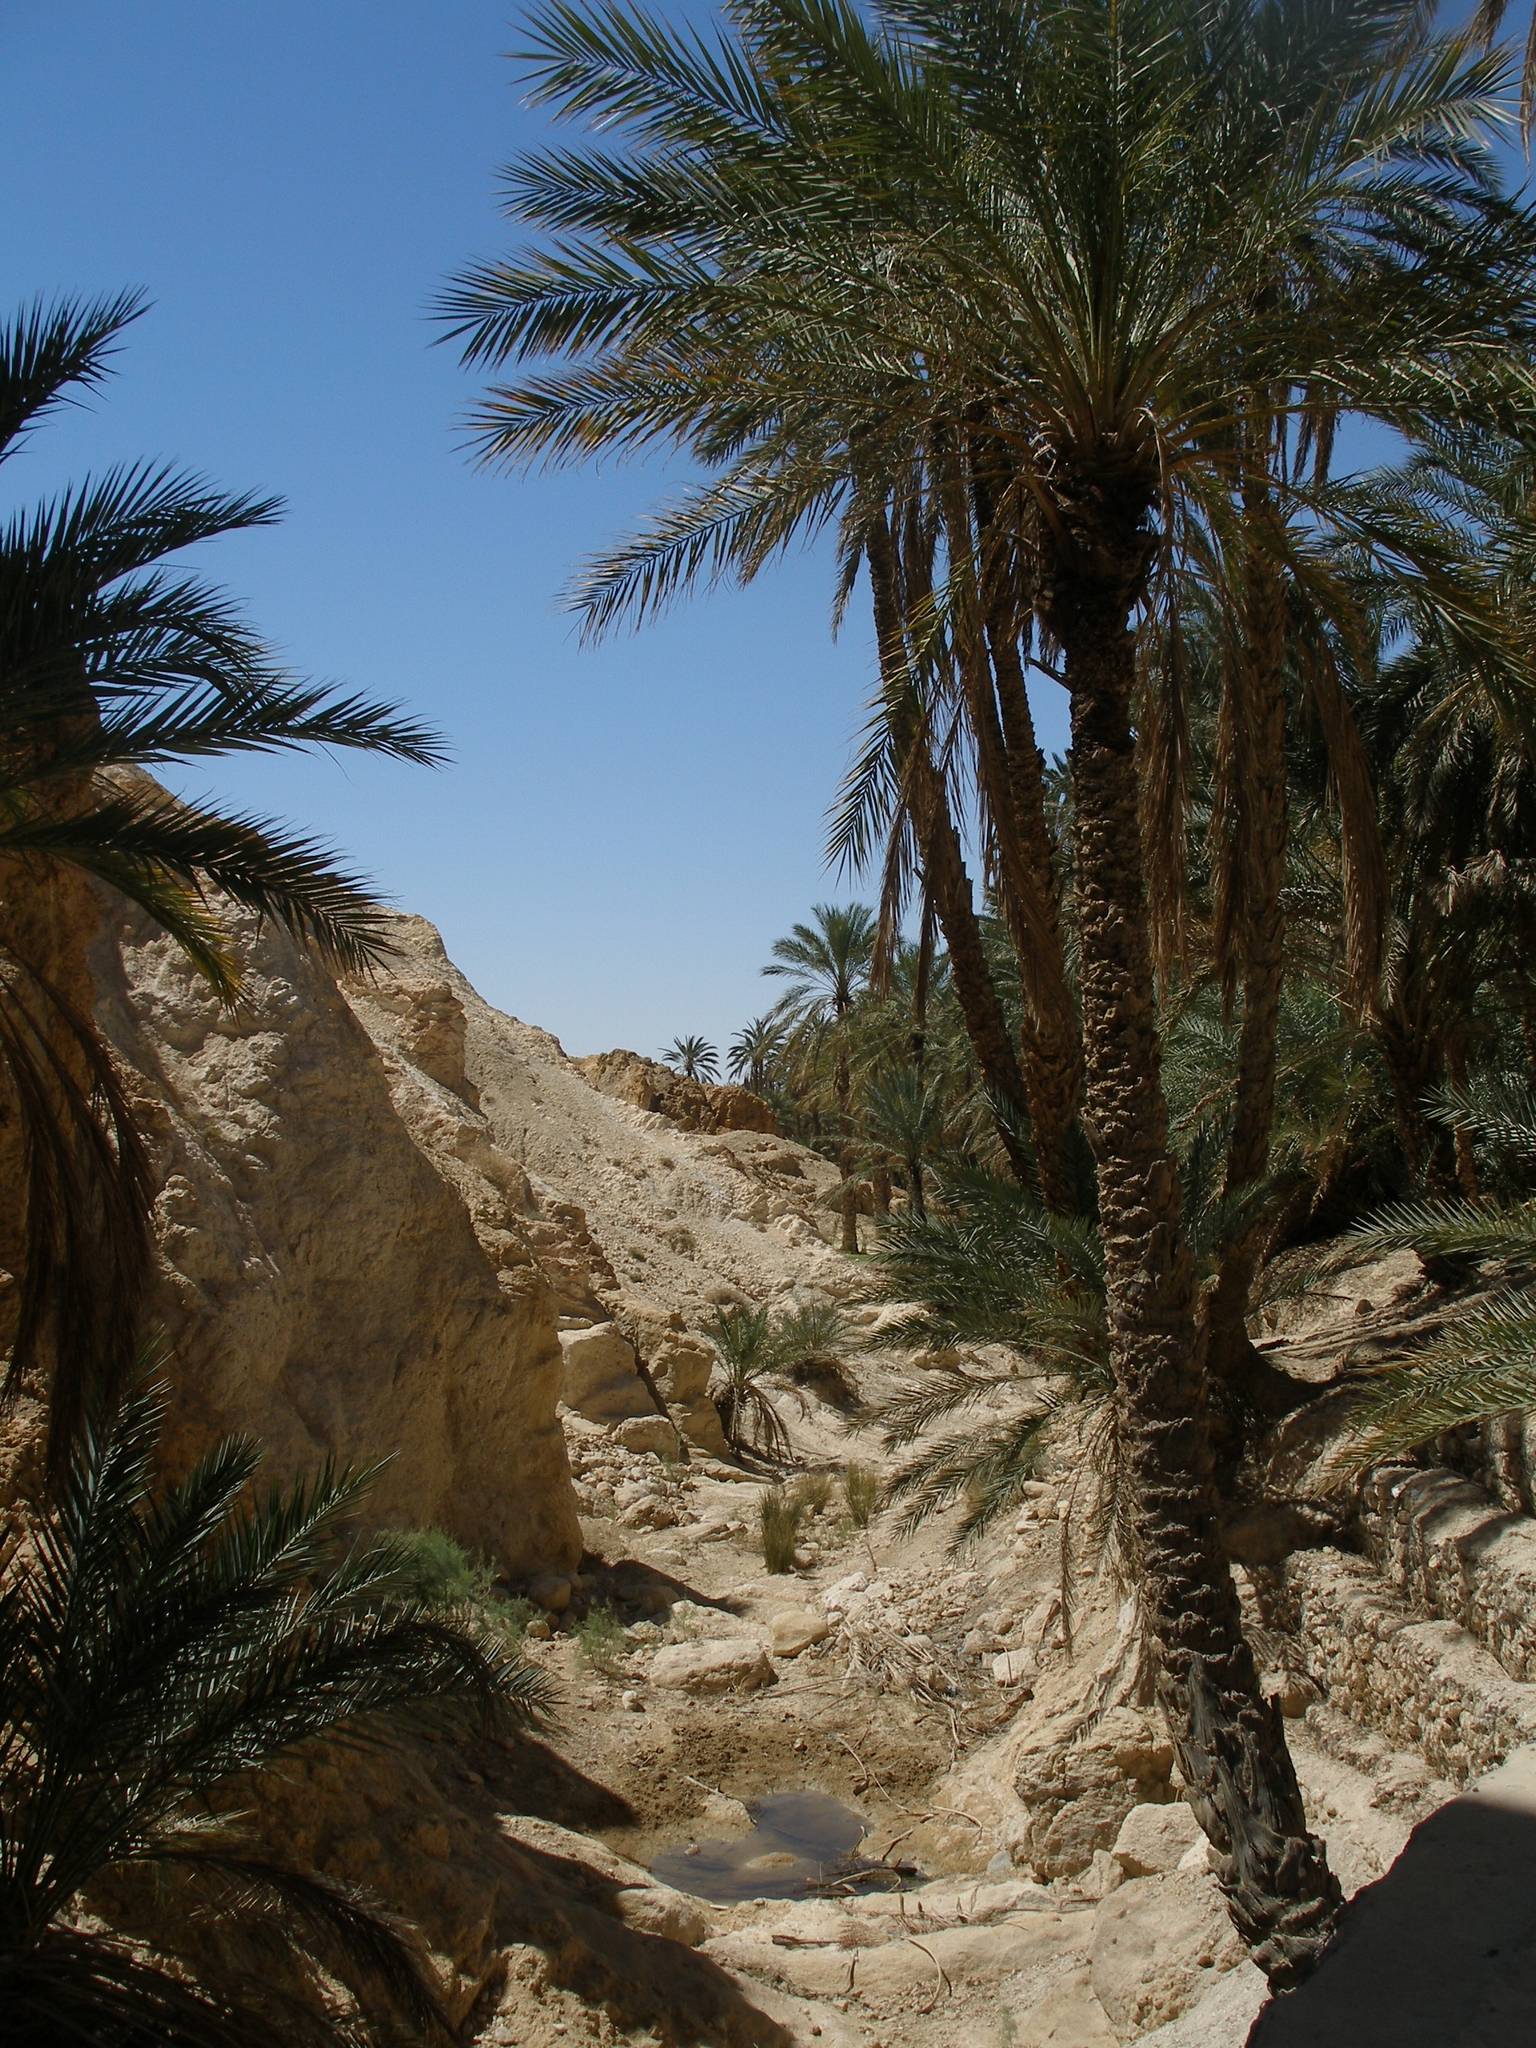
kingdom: Plantae
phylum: Tracheophyta
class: Liliopsida
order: Arecales
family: Arecaceae
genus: Phoenix
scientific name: Phoenix dactylifera
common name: Date palm
